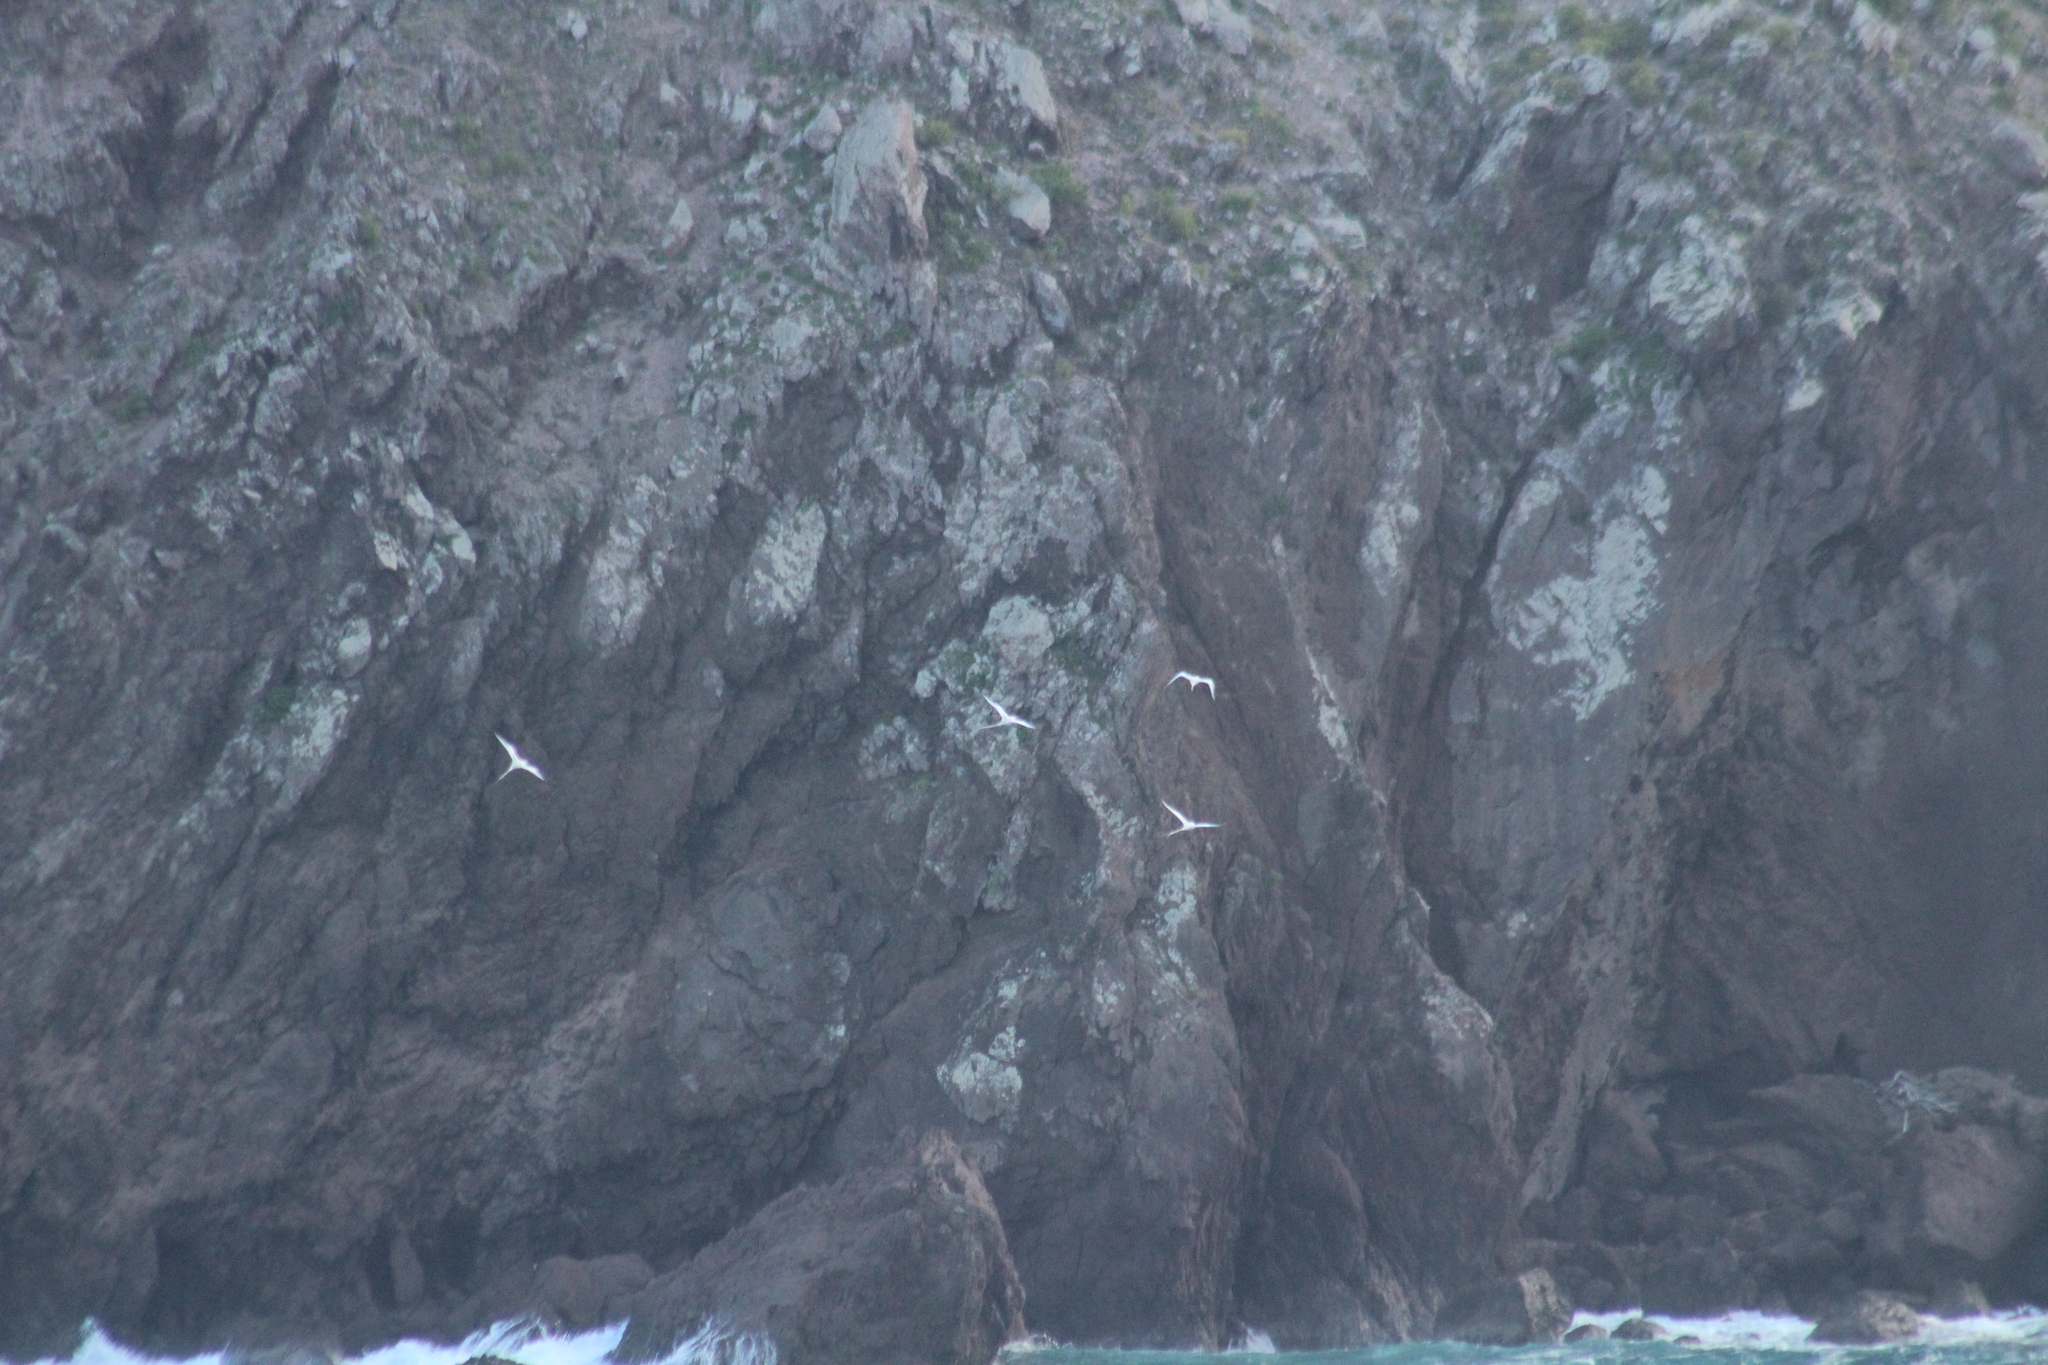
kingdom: Animalia
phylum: Chordata
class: Aves
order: Phaethontiformes
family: Phaethontidae
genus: Phaethon
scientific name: Phaethon aethereus
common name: Red-billed tropicbird
